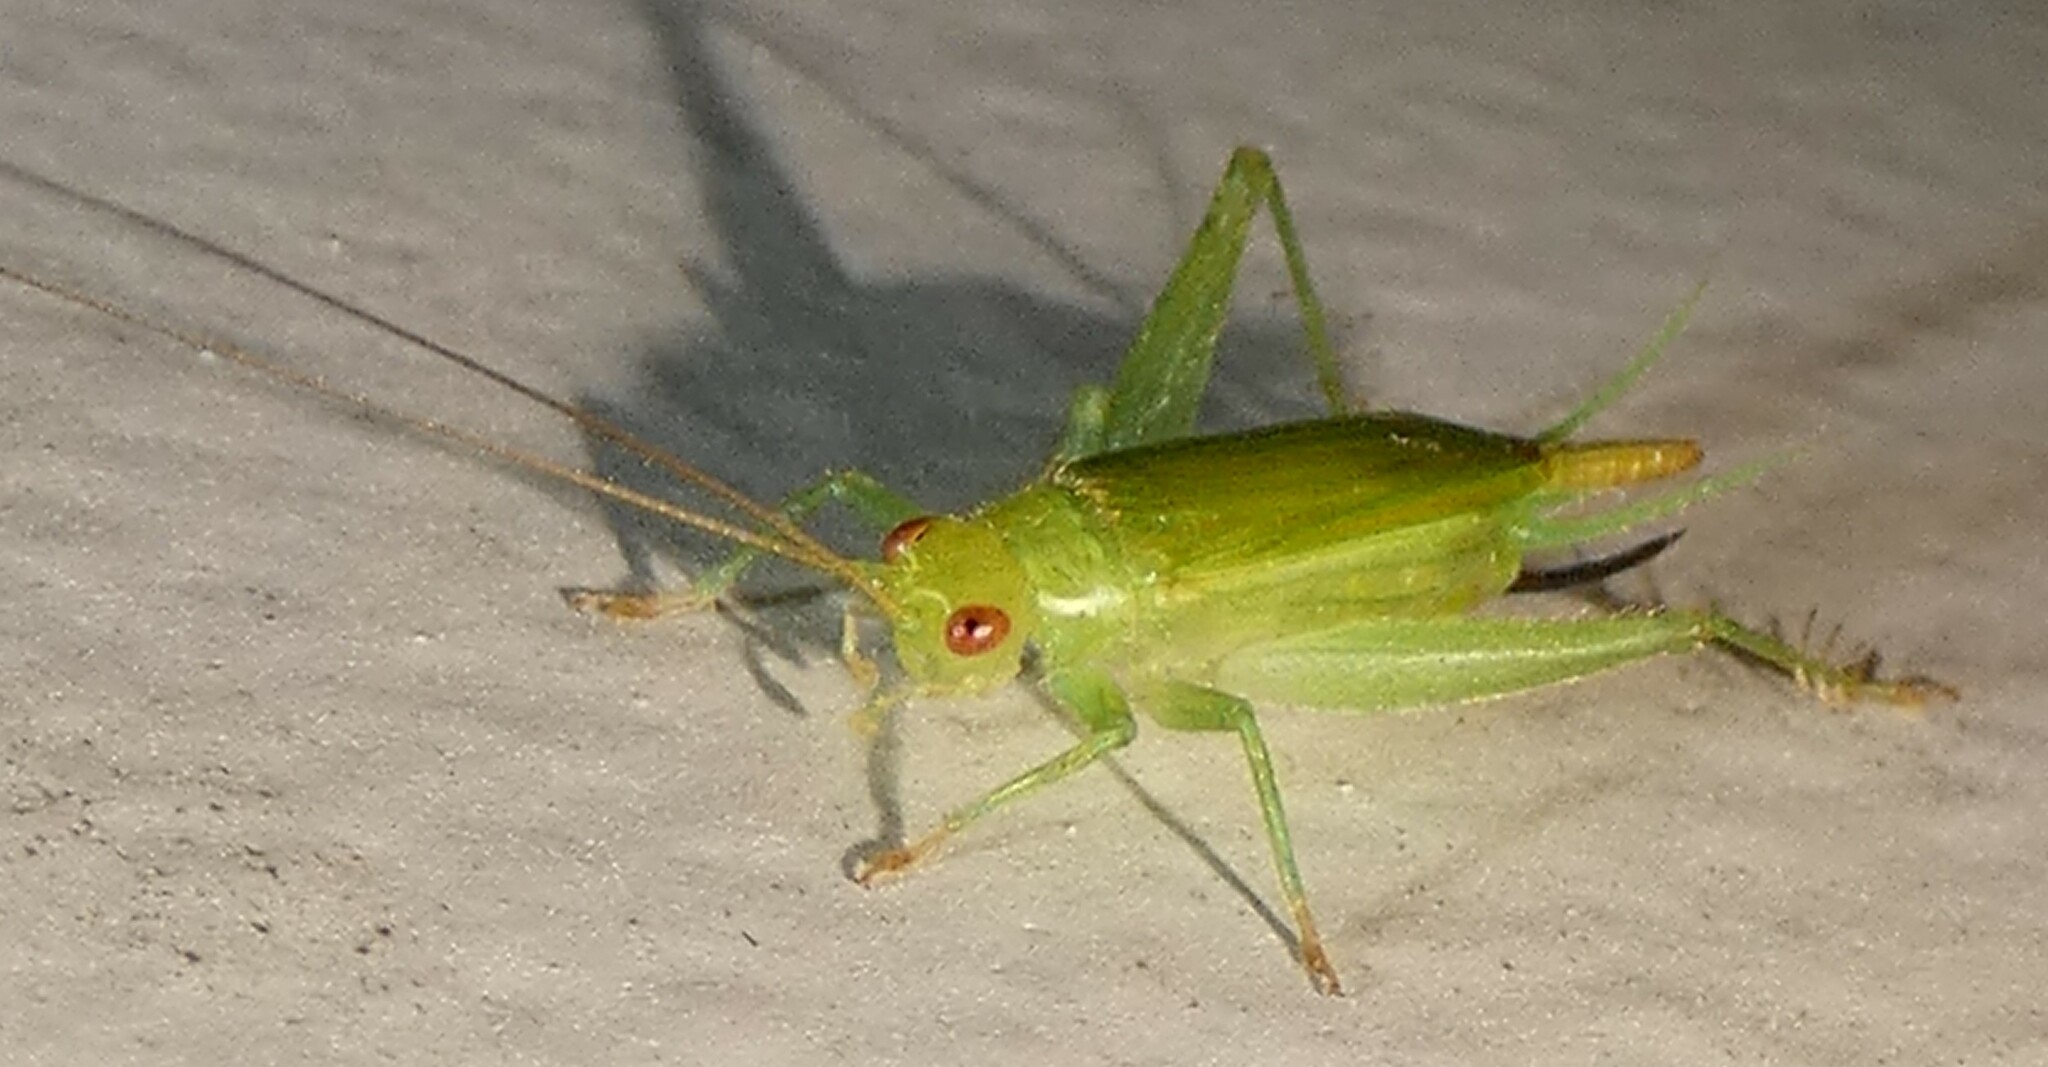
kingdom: Animalia
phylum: Arthropoda
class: Insecta
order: Orthoptera
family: Trigonidiidae
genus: Cyrtoxipha
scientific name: Cyrtoxipha columbiana
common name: Columbian trig
